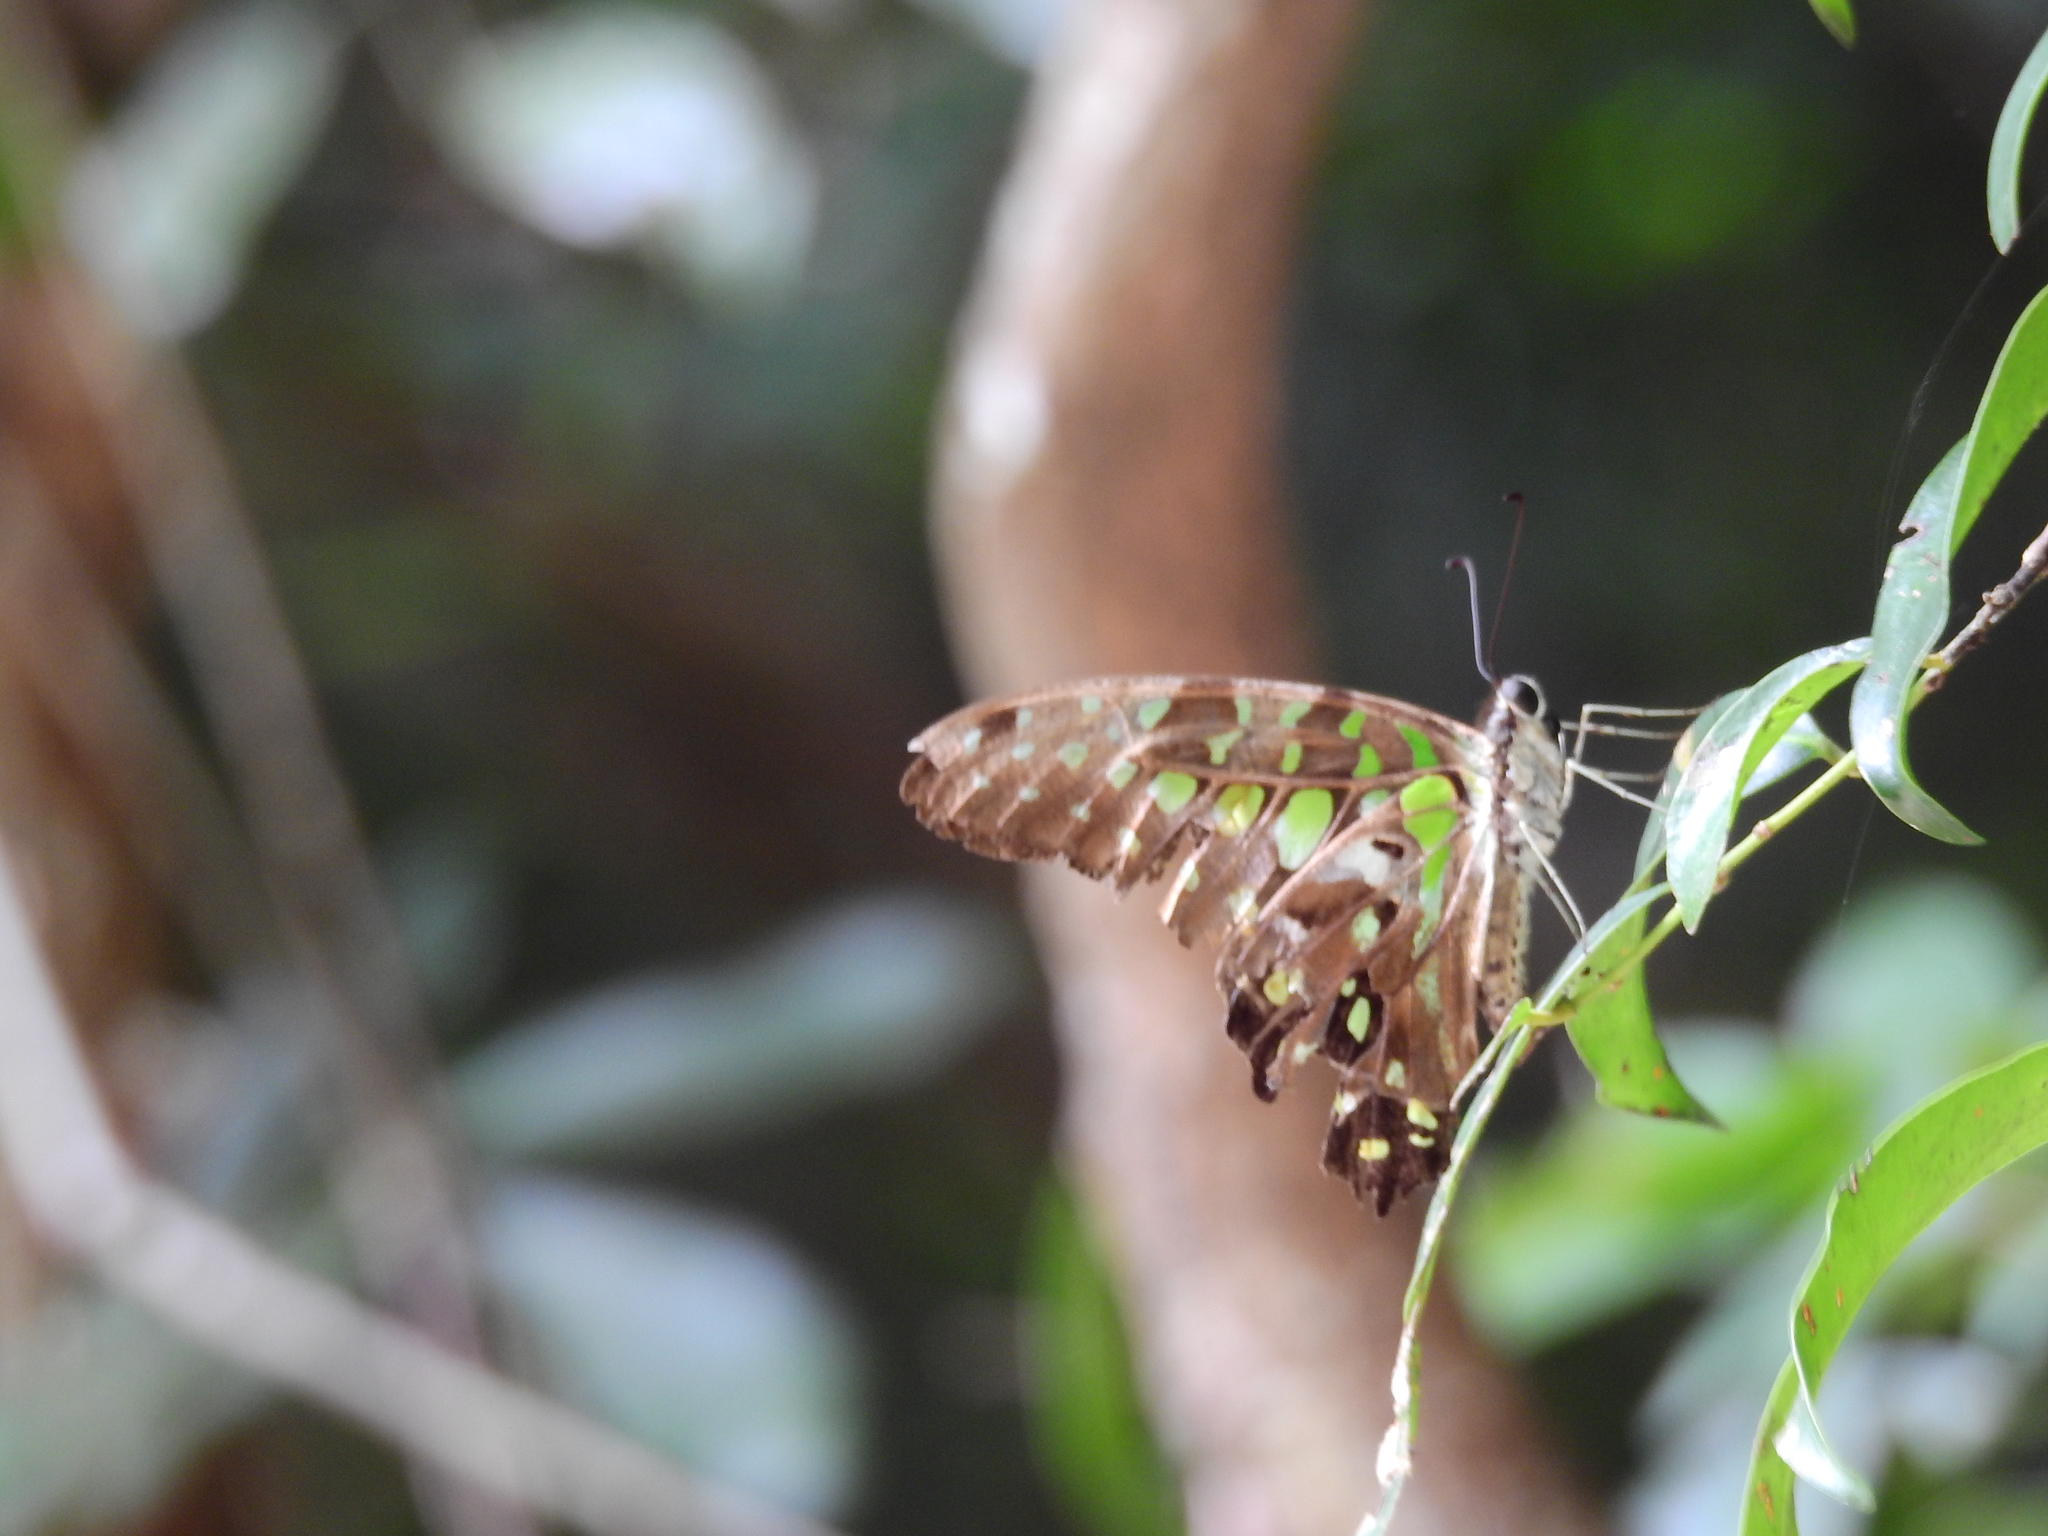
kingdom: Animalia
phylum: Arthropoda
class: Insecta
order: Lepidoptera
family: Papilionidae
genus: Graphium
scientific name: Graphium agamemnon
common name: Tailed jay
